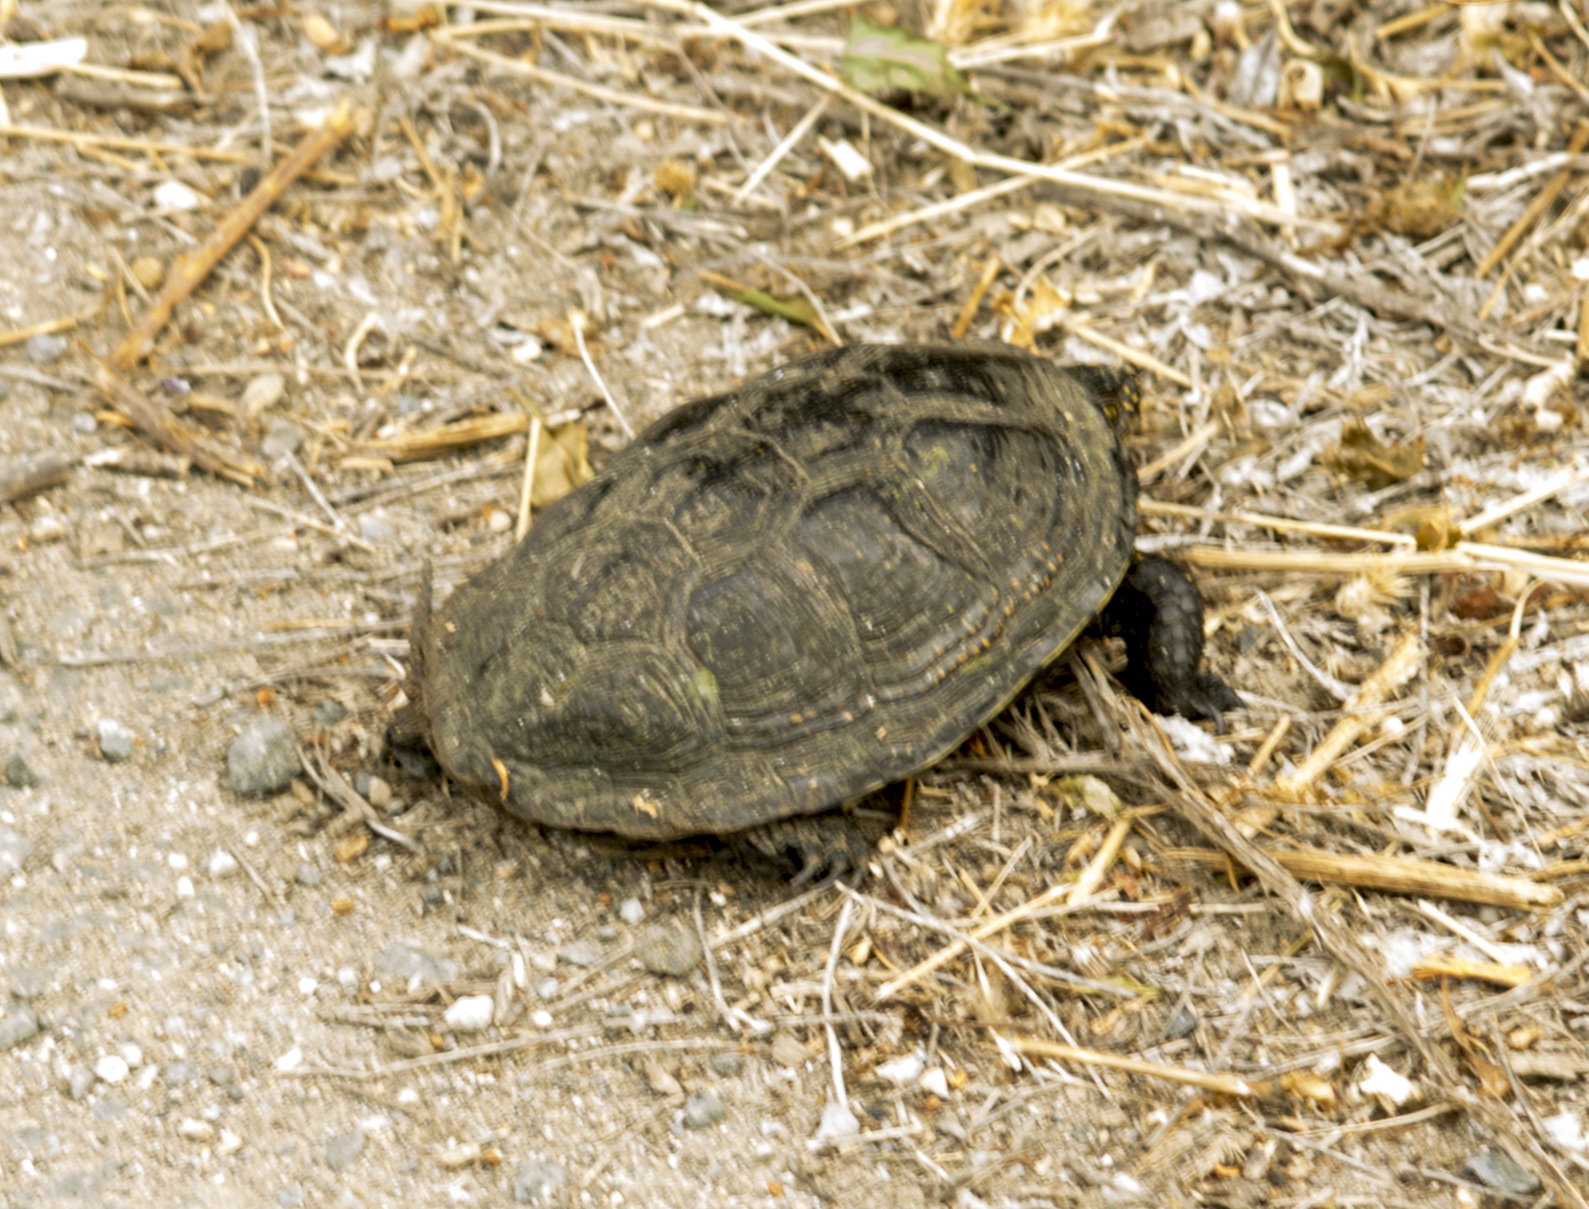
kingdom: Animalia
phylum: Chordata
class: Testudines
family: Emydidae
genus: Emys
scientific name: Emys orbicularis
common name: European pond turtle
